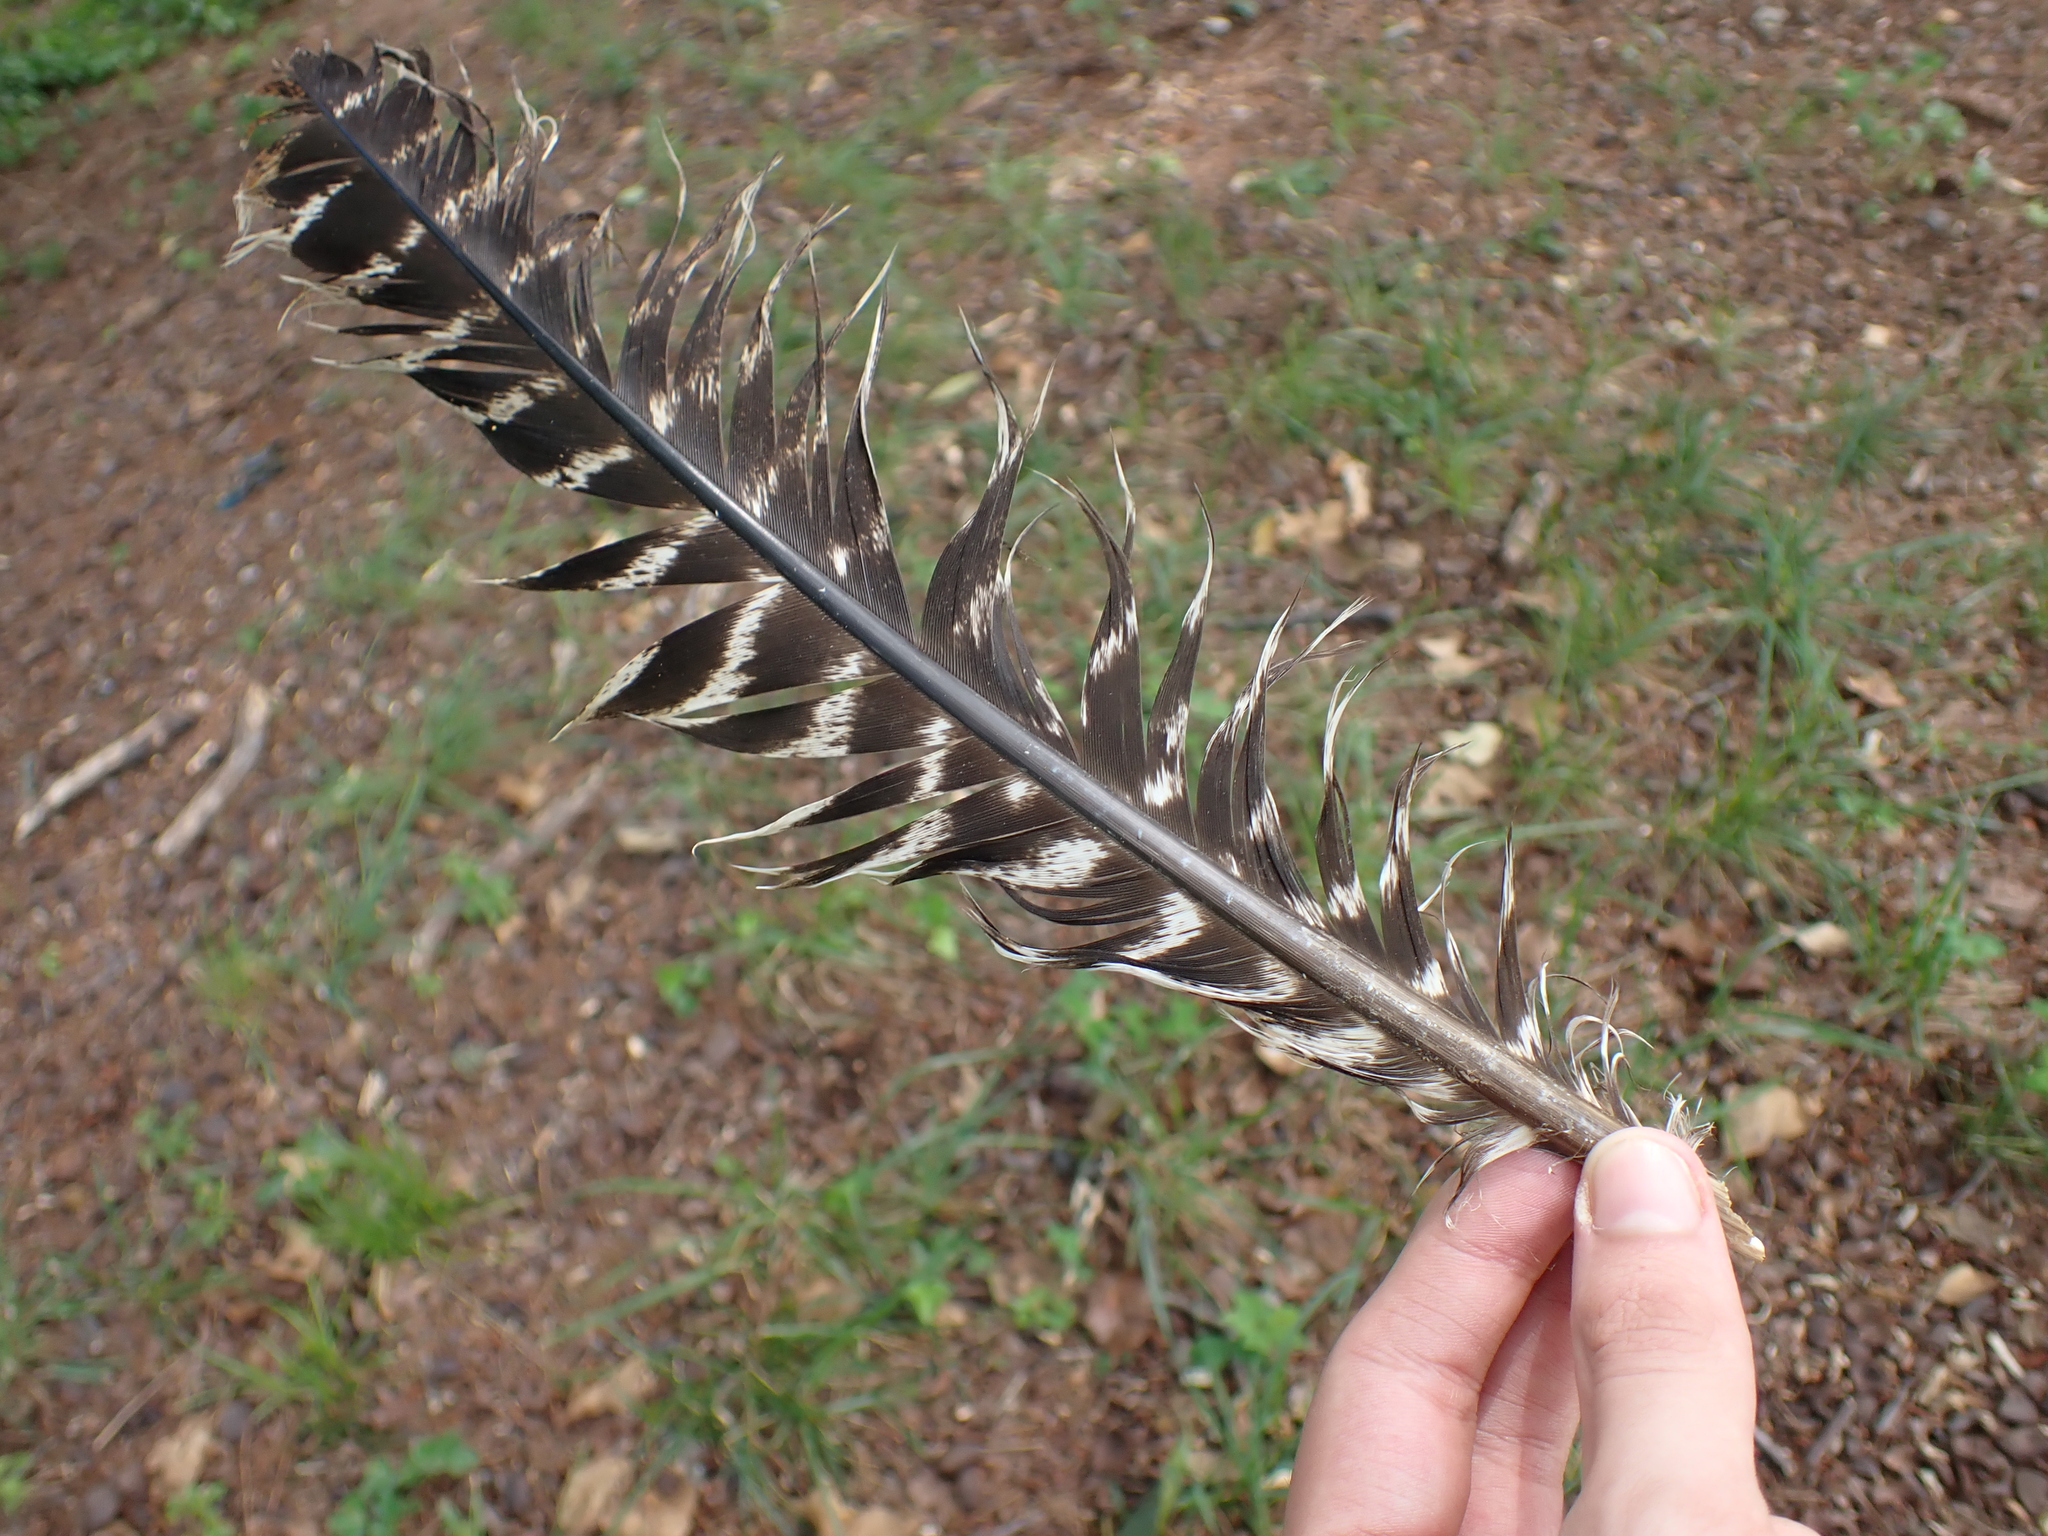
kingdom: Animalia
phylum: Chordata
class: Aves
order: Galliformes
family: Phasianidae
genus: Meleagris
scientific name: Meleagris gallopavo
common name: Wild turkey
